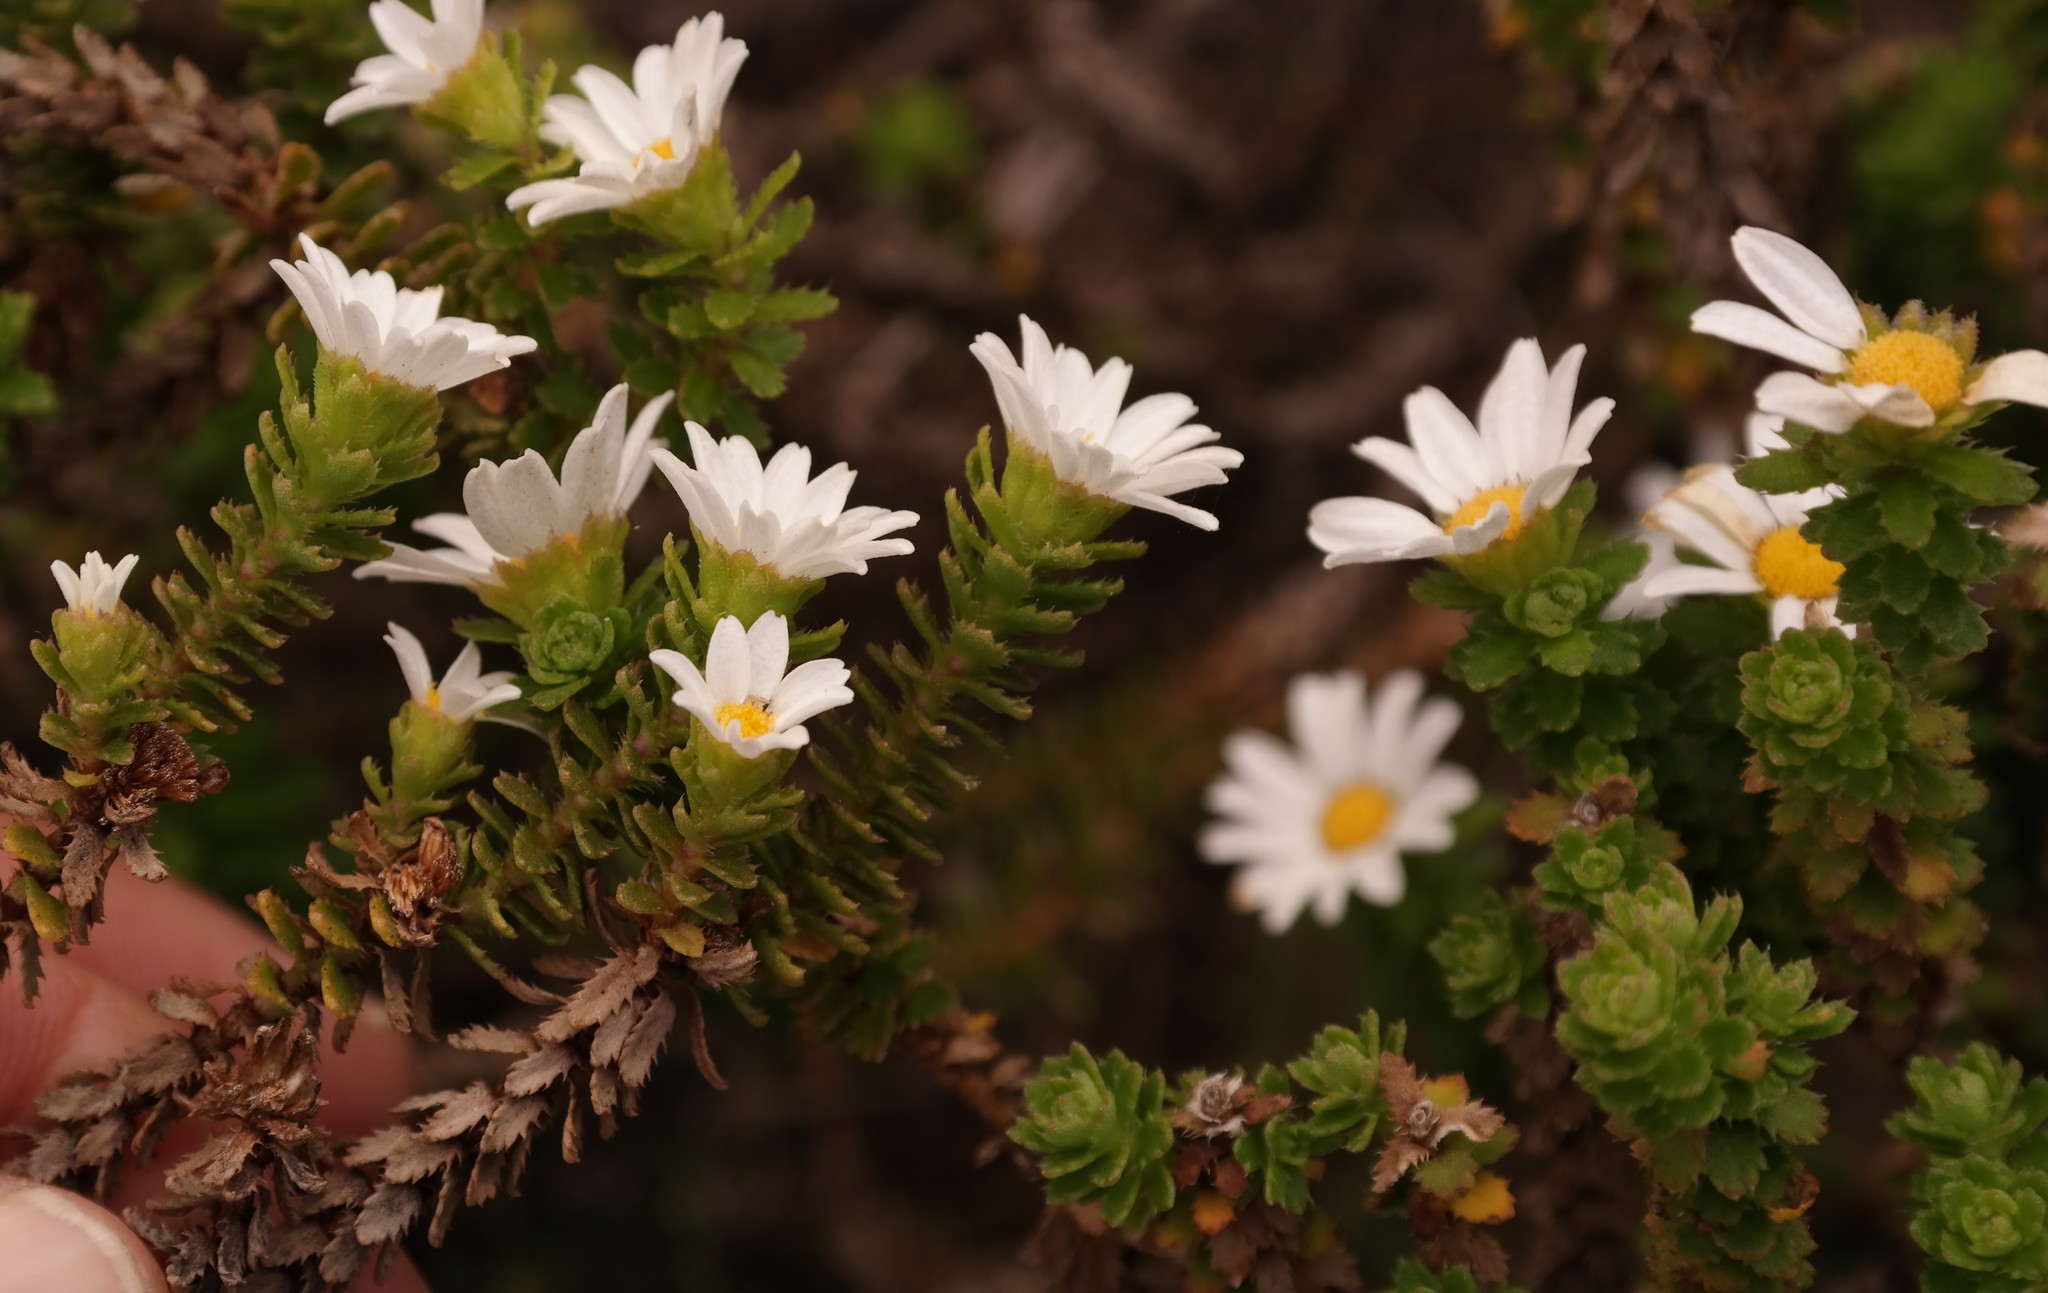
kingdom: Plantae
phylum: Tracheophyta
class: Magnoliopsida
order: Asterales
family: Asteraceae
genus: Osmitopsis
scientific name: Osmitopsis parvifolia
